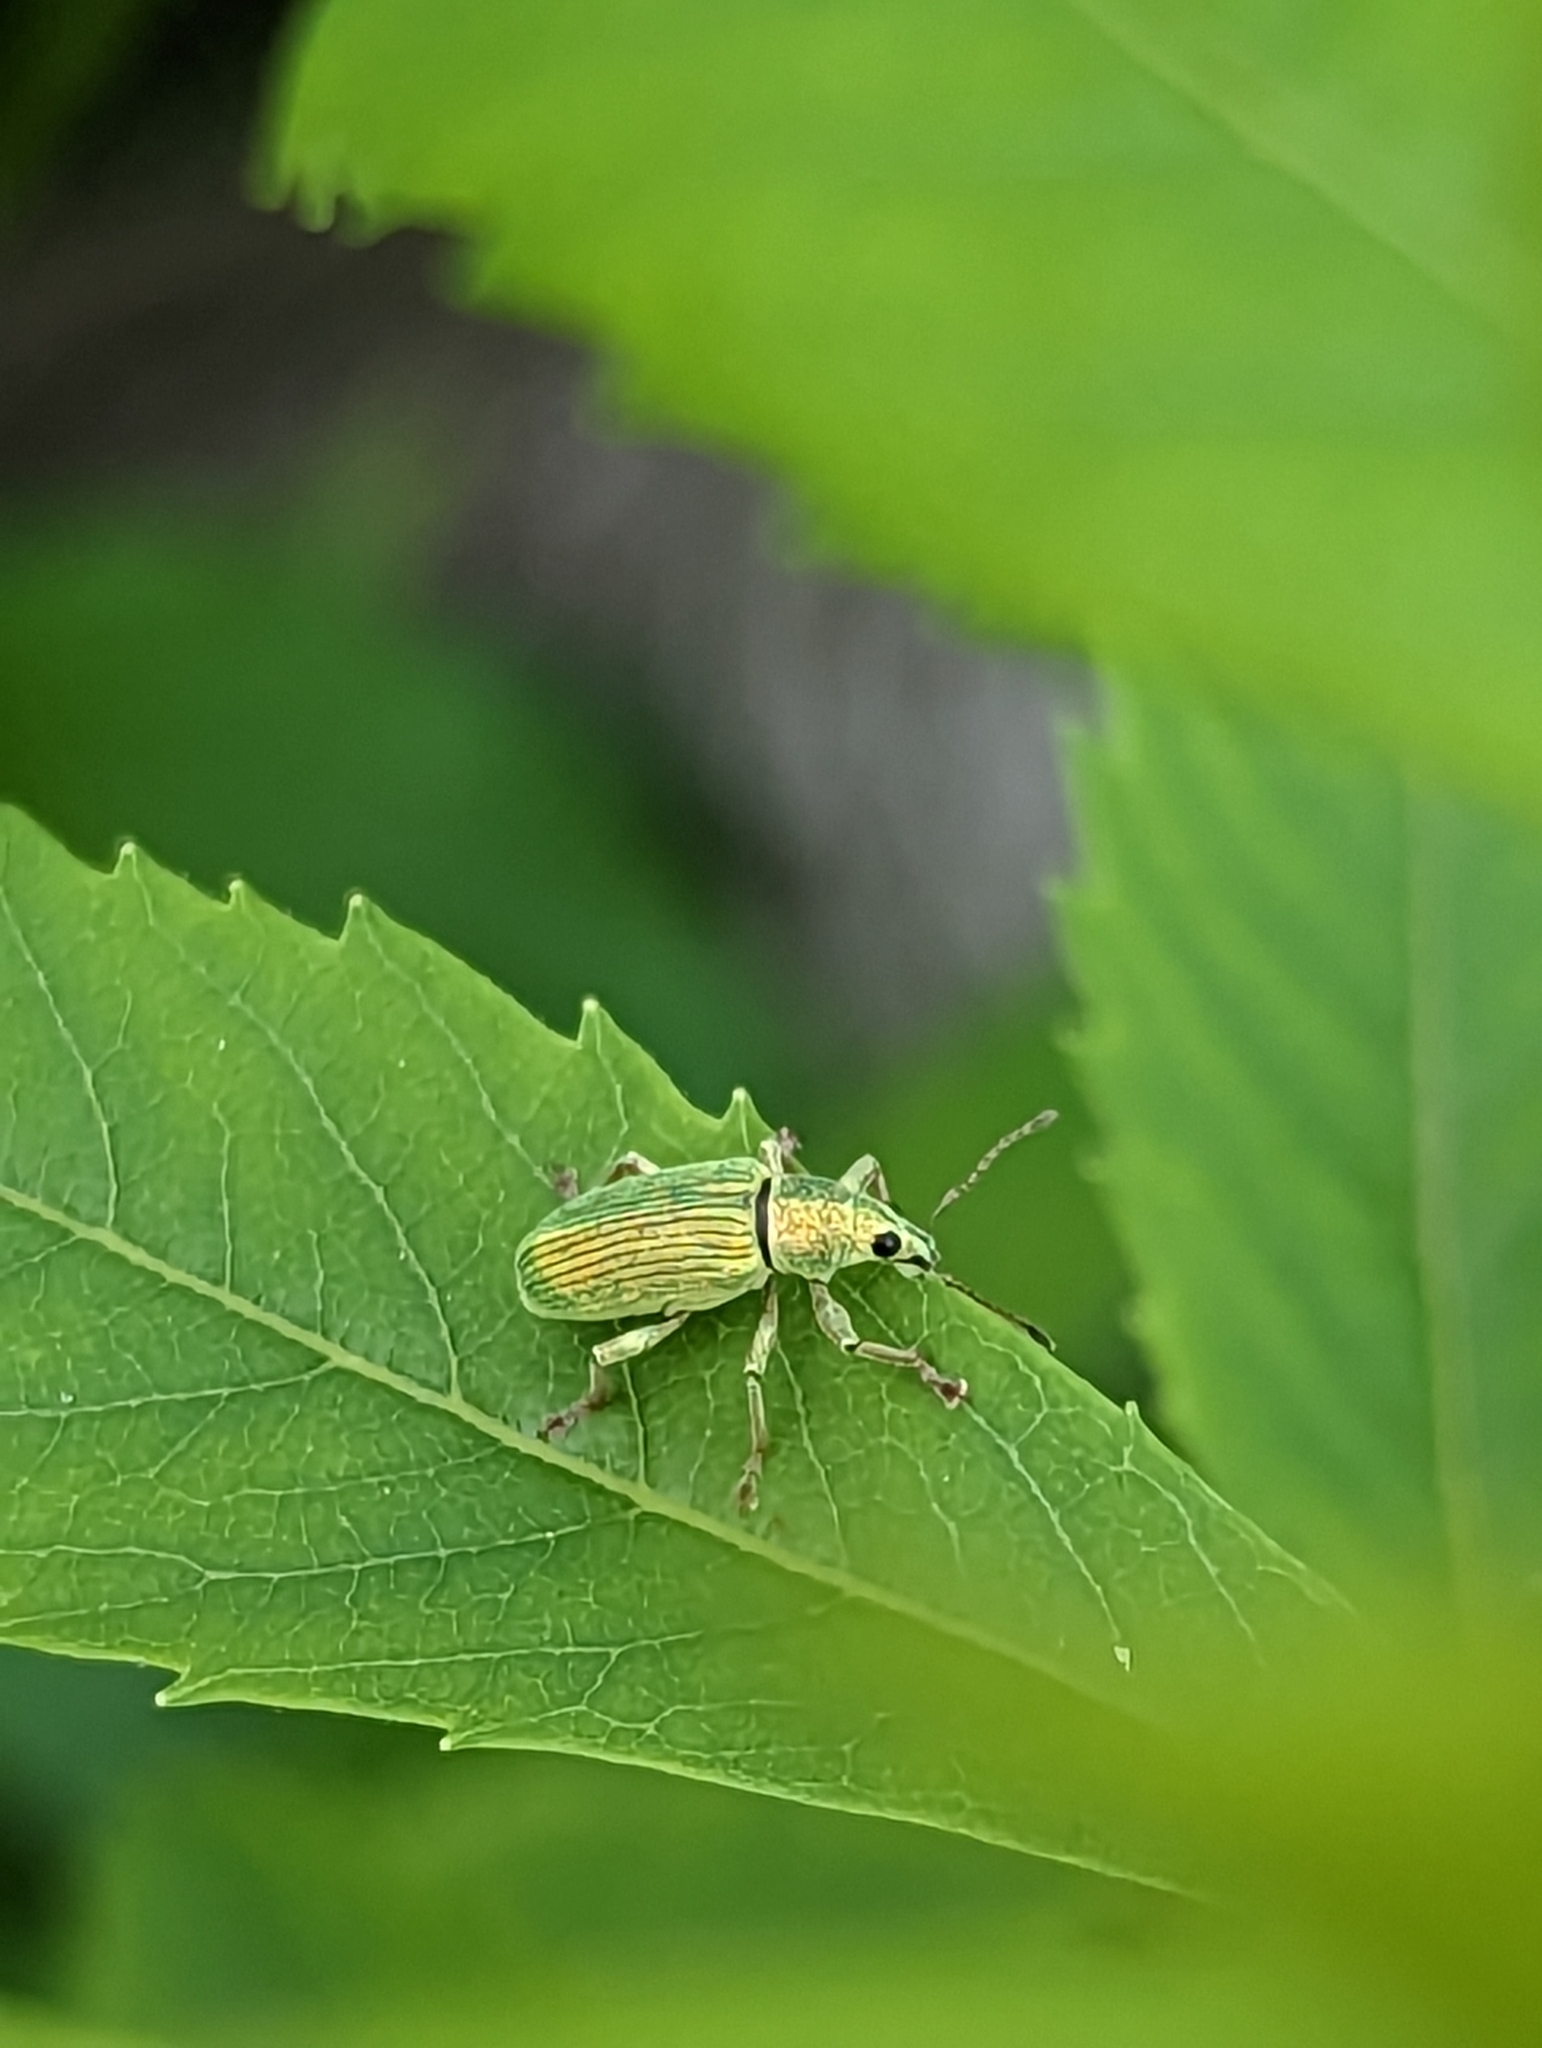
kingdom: Animalia
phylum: Arthropoda
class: Insecta
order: Coleoptera
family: Curculionidae
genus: Polydrusus
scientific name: Polydrusus formosus
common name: Weevil
